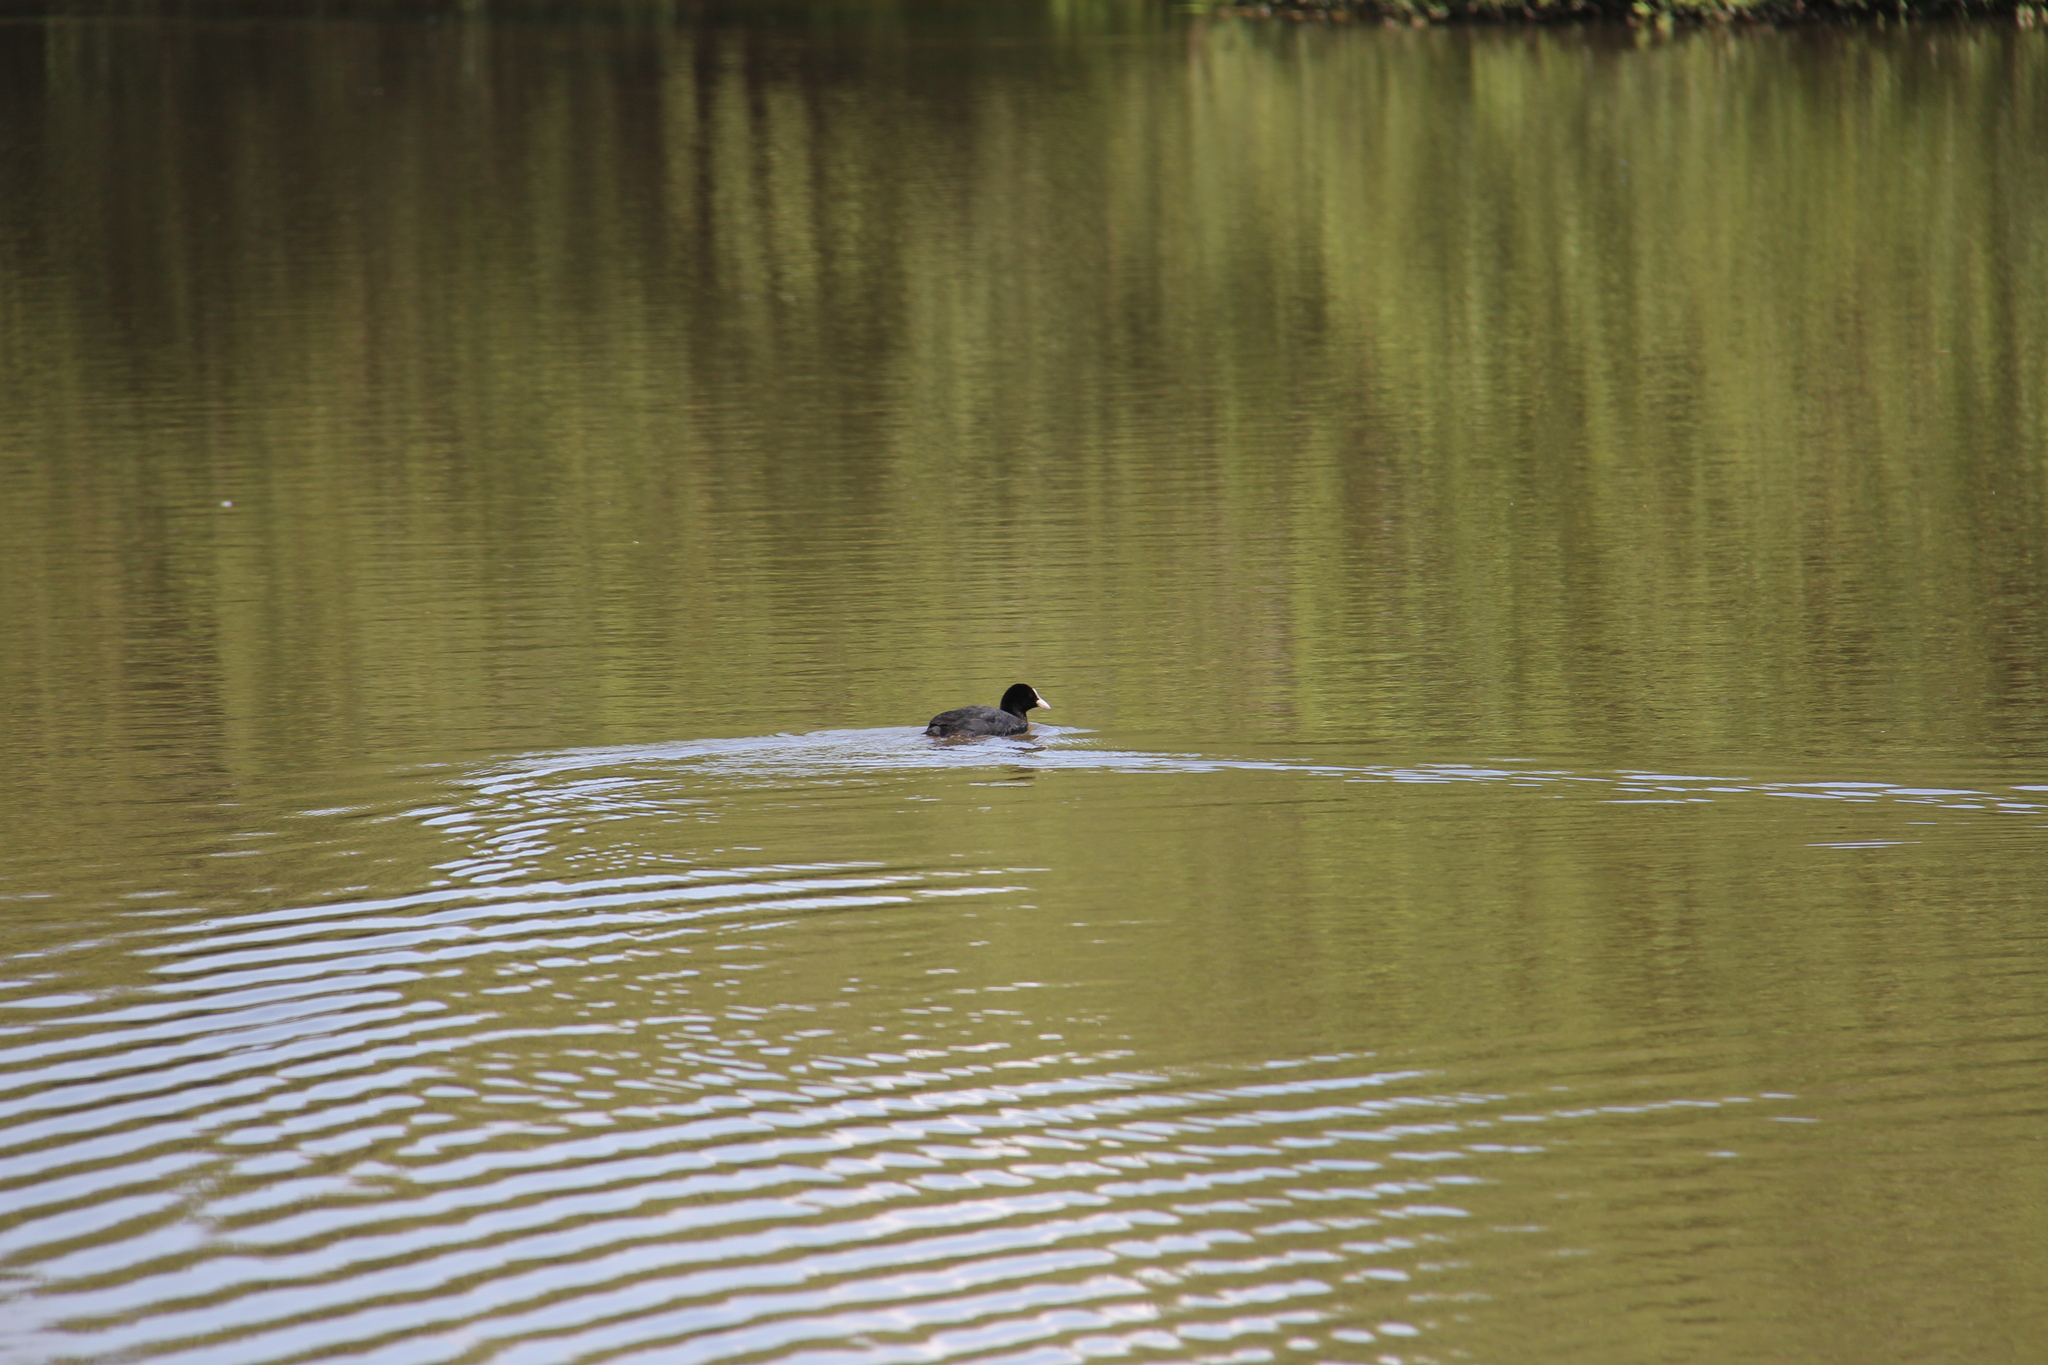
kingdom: Animalia
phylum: Chordata
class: Aves
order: Gruiformes
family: Rallidae
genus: Fulica
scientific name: Fulica atra
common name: Eurasian coot
